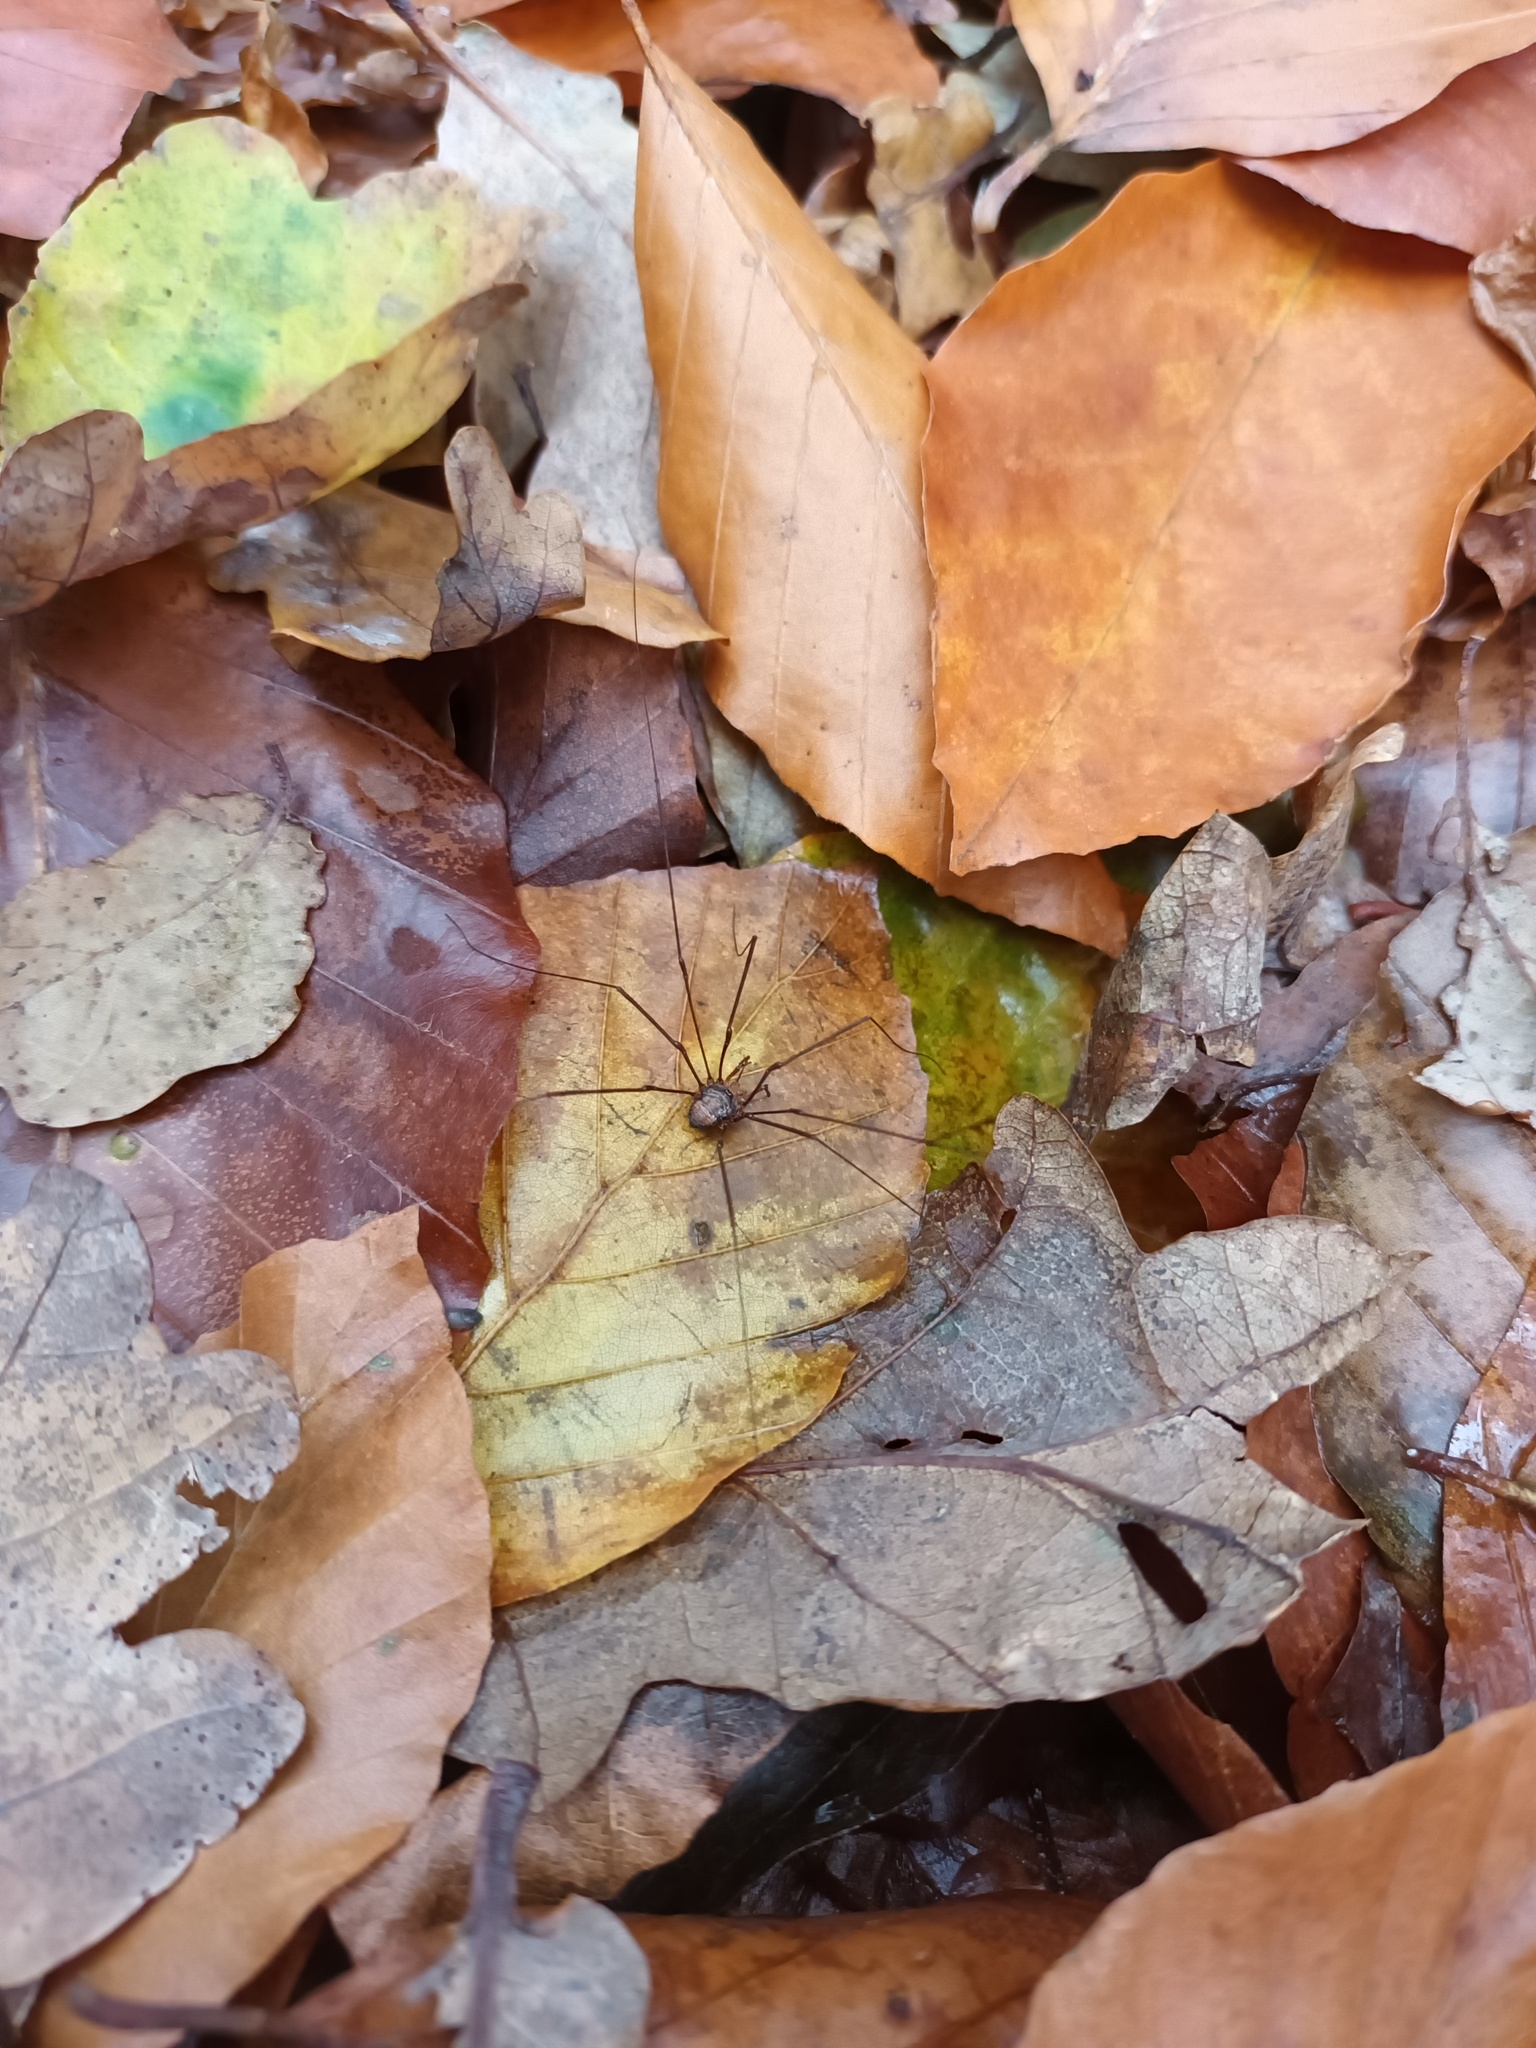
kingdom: Animalia
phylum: Arthropoda
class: Arachnida
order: Opiliones
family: Phalangiidae
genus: Dicranopalpus
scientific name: Dicranopalpus ramosus
